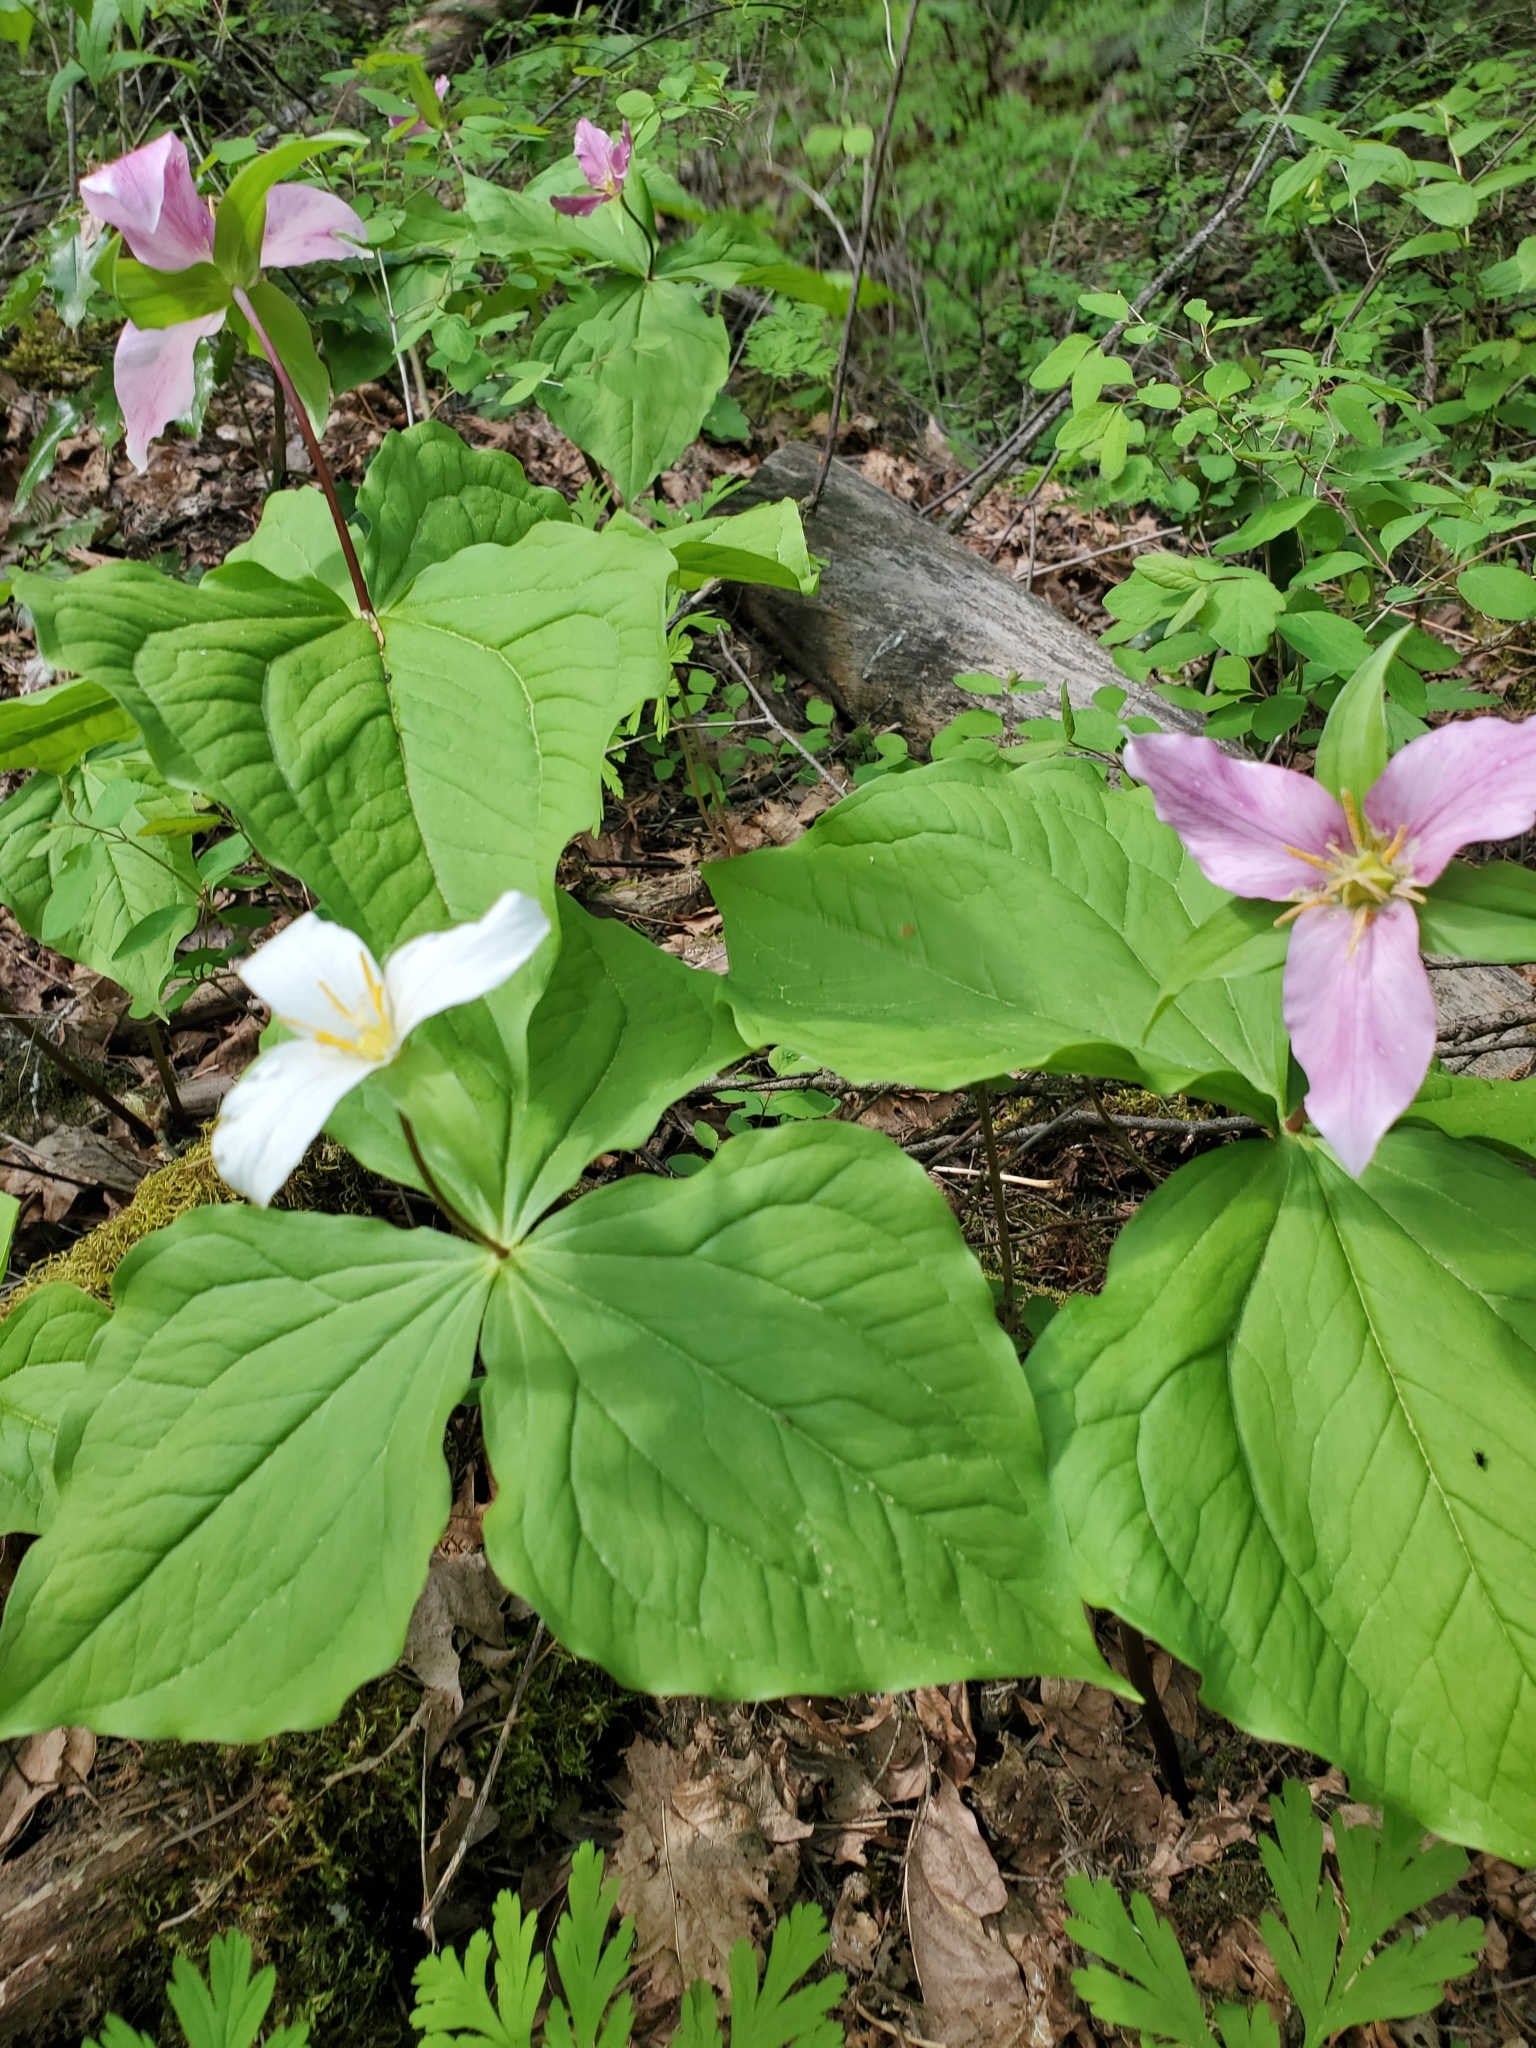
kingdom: Plantae
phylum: Tracheophyta
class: Liliopsida
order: Liliales
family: Melanthiaceae
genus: Trillium
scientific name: Trillium ovatum
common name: Pacific trillium
